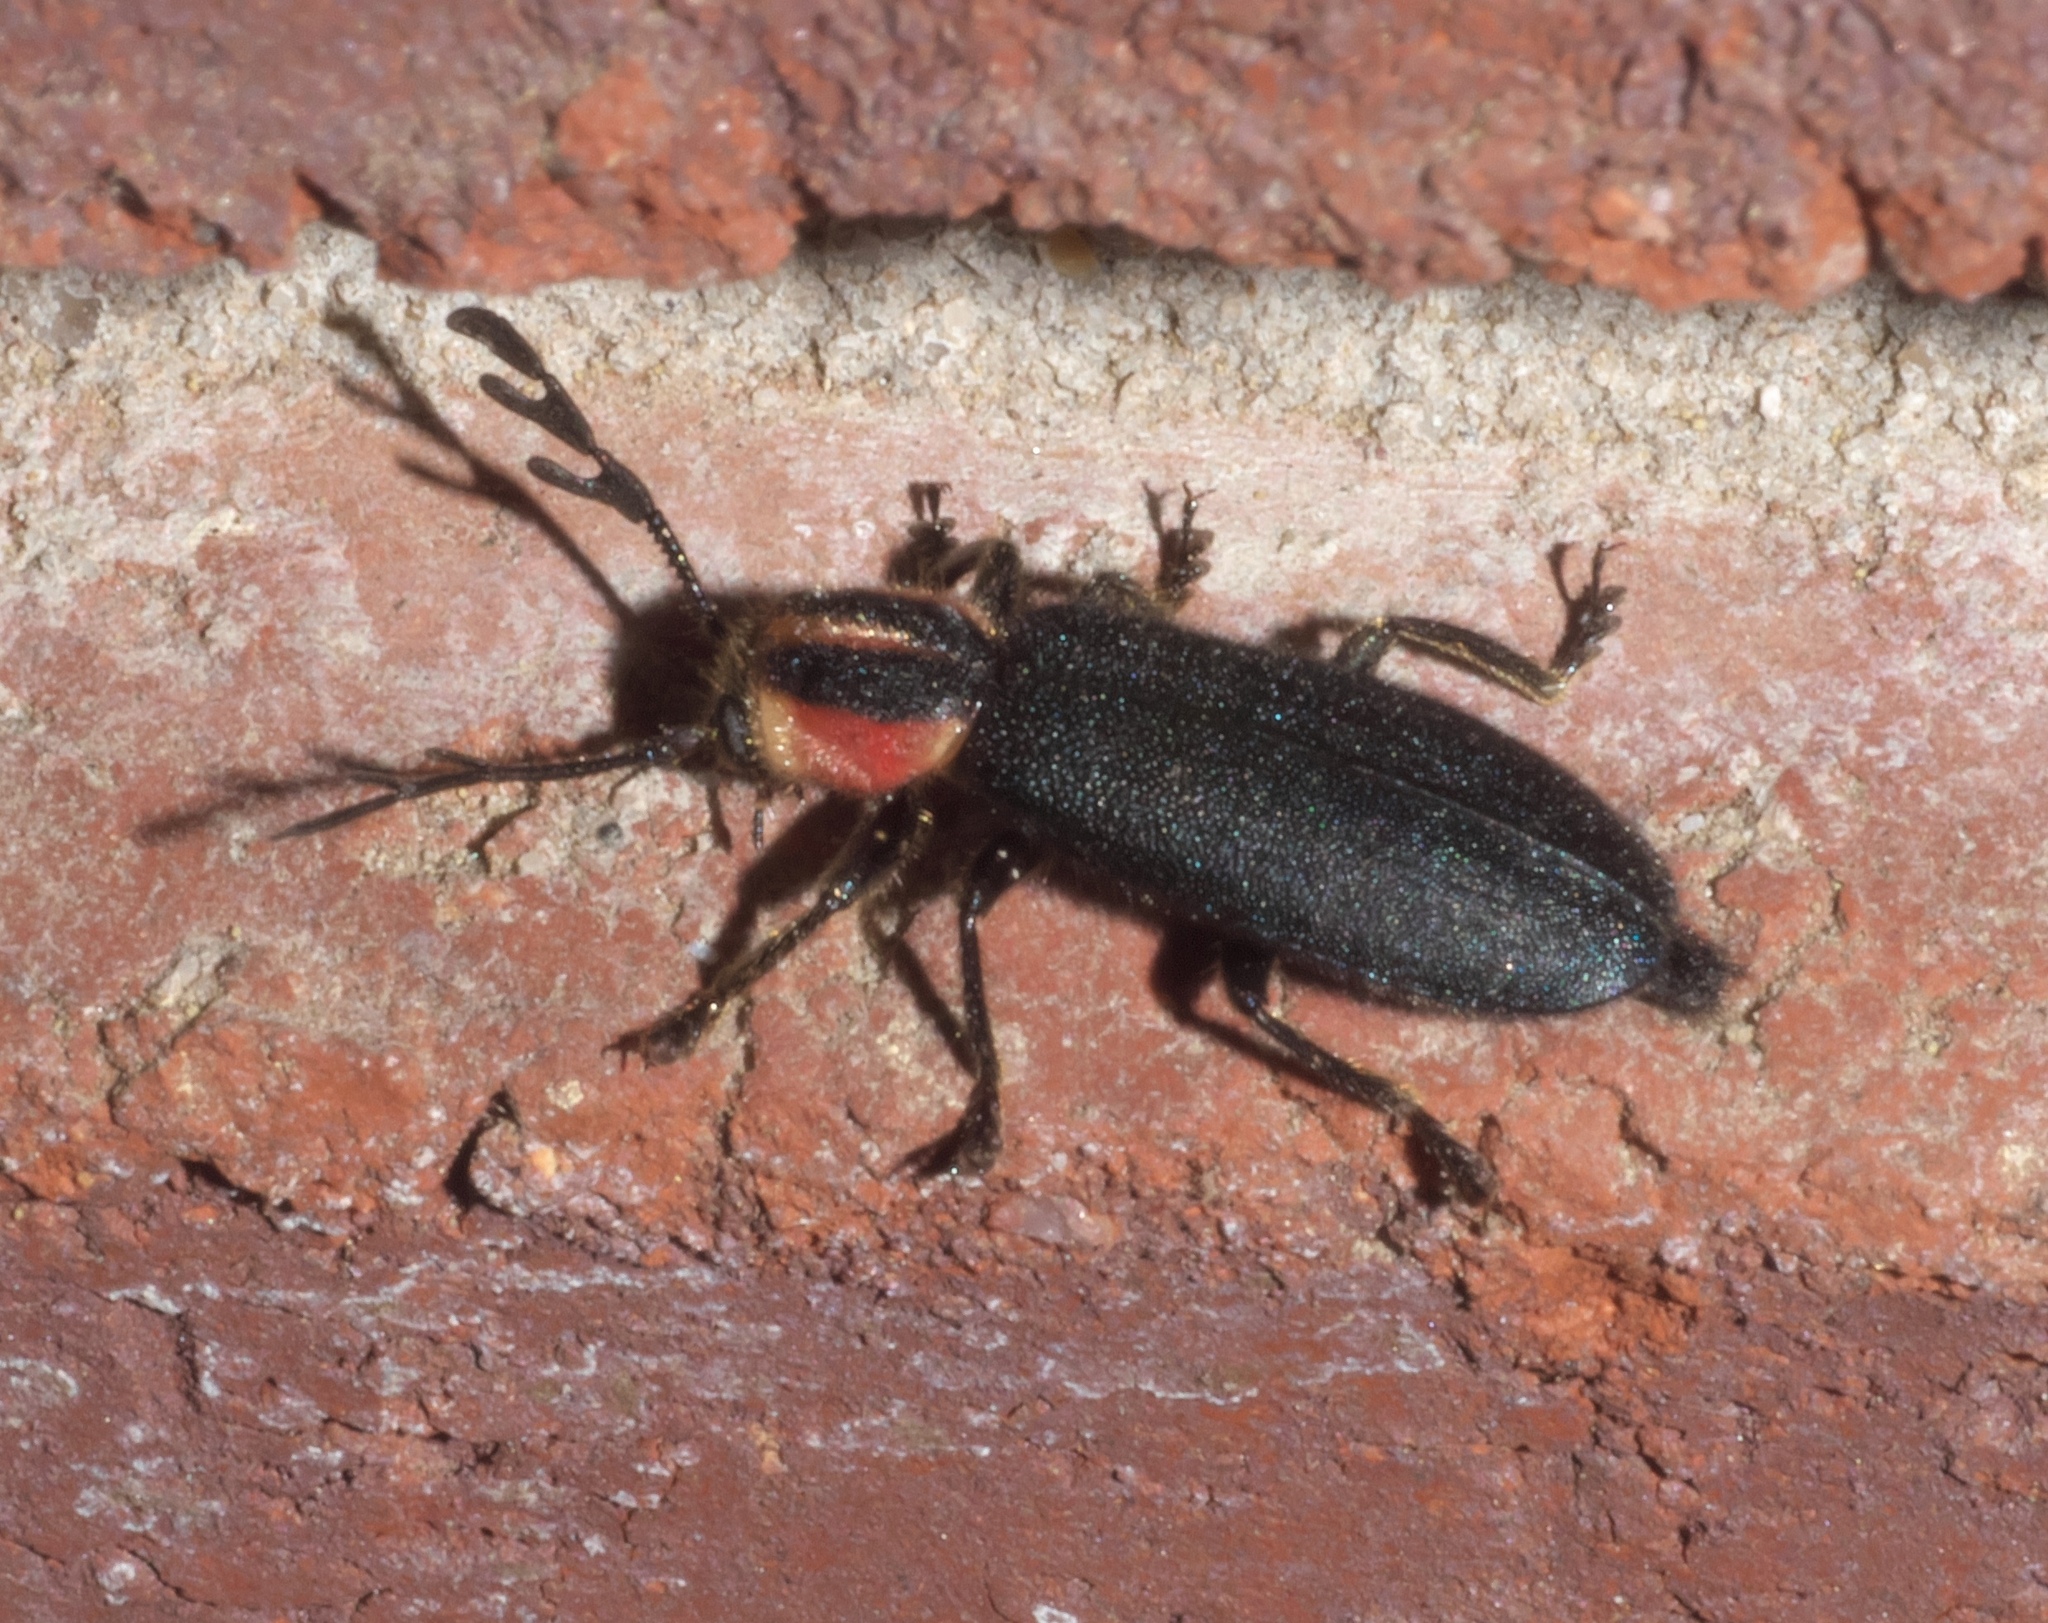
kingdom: Animalia
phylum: Arthropoda
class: Insecta
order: Coleoptera
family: Cleridae
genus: Chariessa
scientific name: Chariessa pilosa
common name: Pilose checkered beetle
